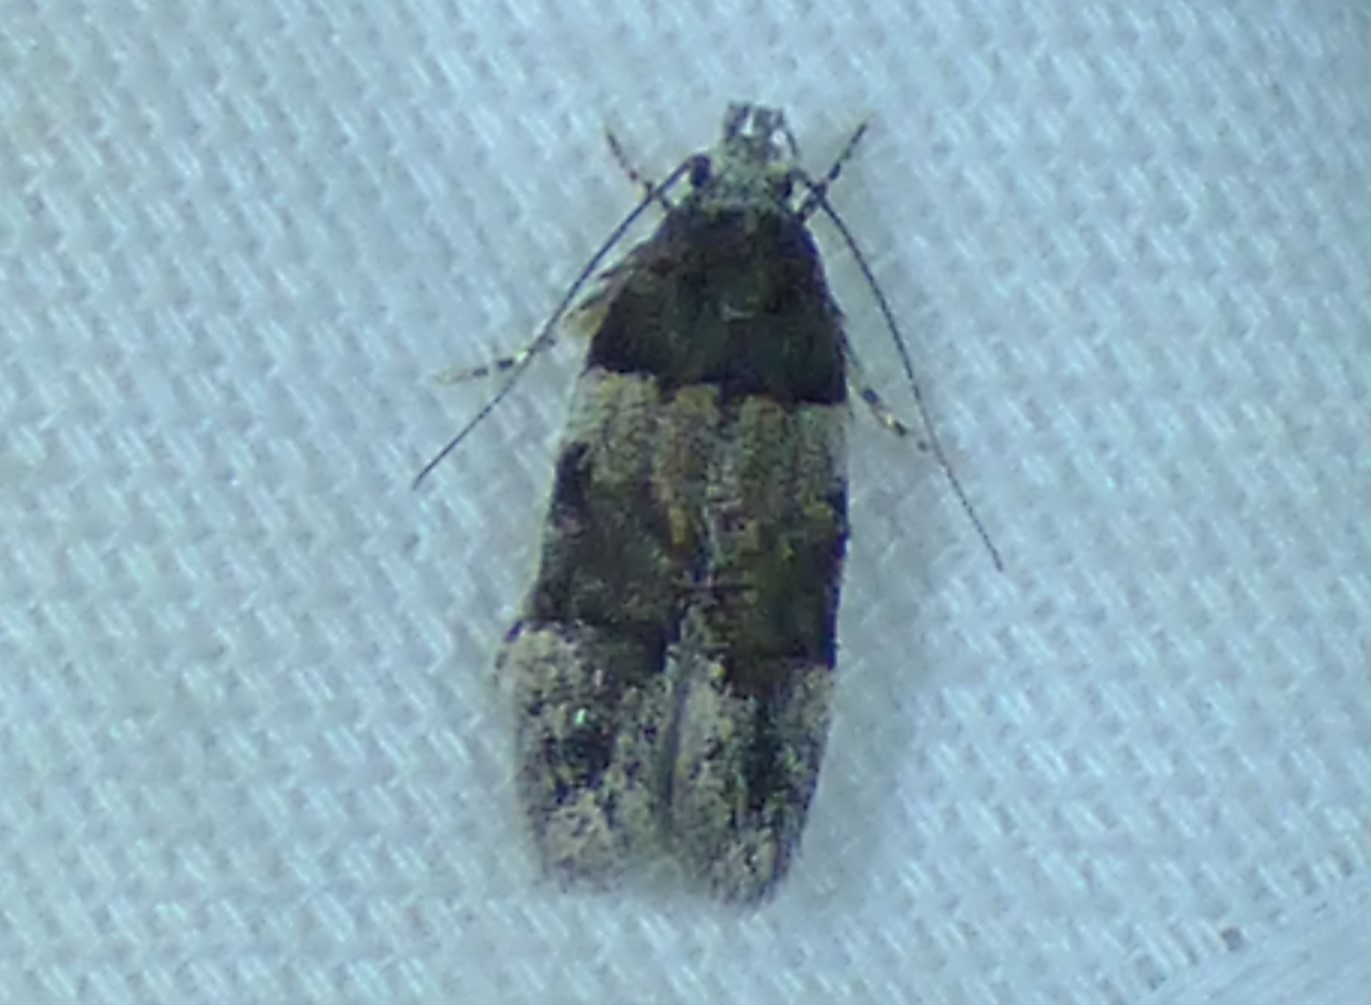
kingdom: Animalia
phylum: Arthropoda
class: Insecta
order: Lepidoptera
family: Gelechiidae
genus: Pubitelphusa
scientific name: Pubitelphusa latifasciella
